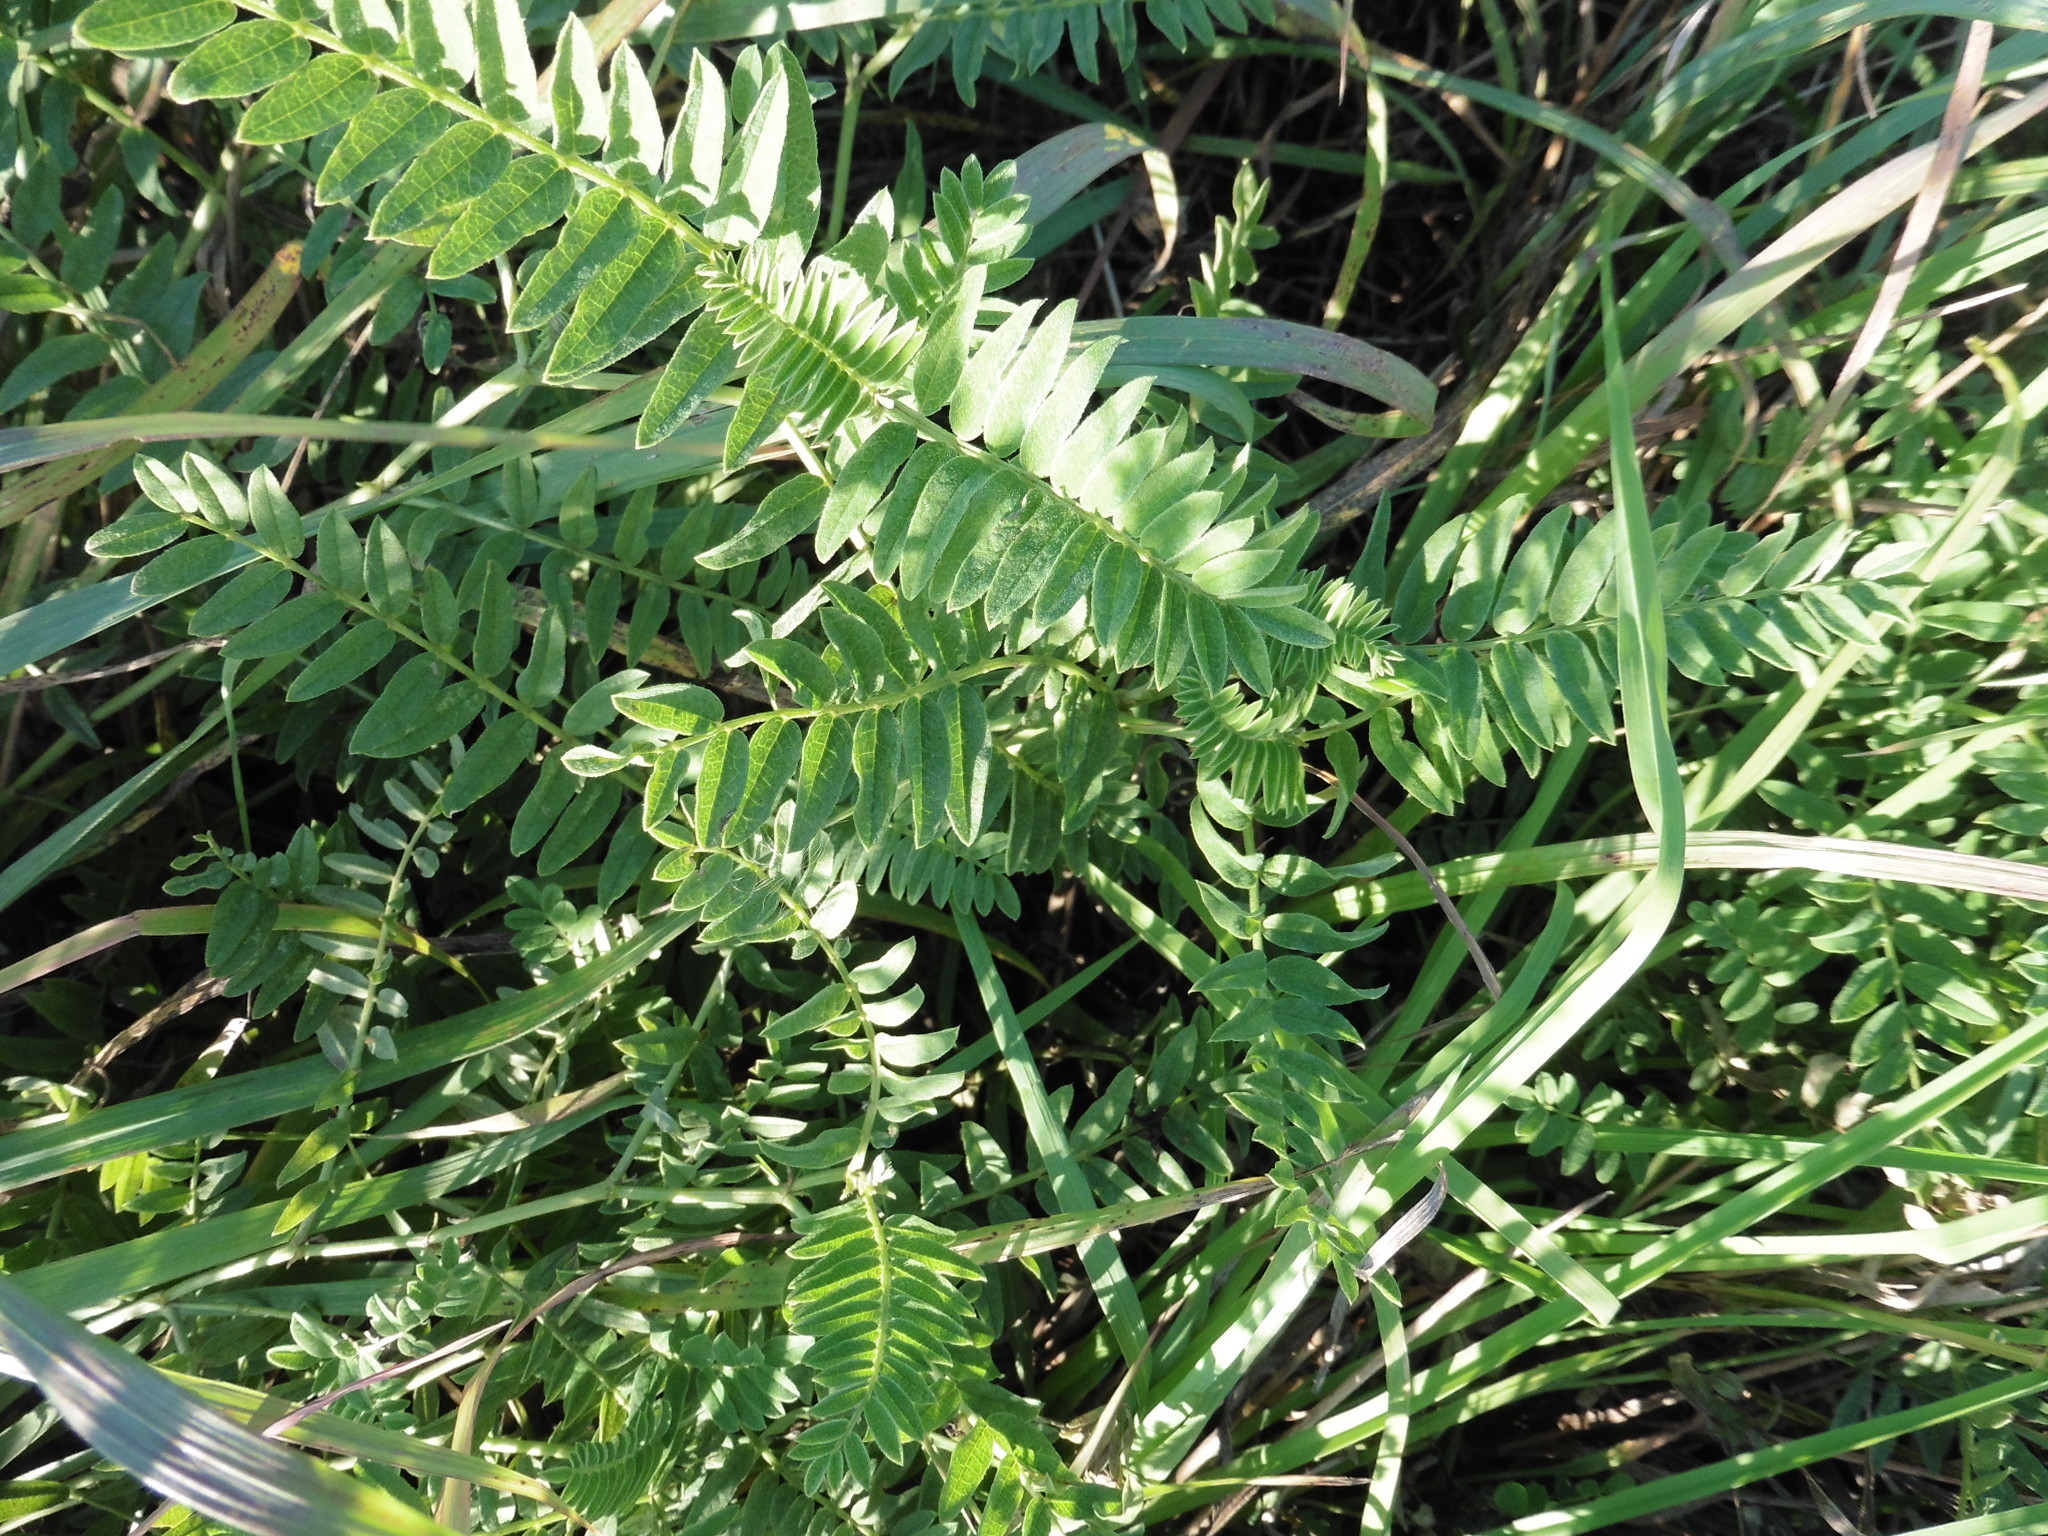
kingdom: Plantae
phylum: Tracheophyta
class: Magnoliopsida
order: Fabales
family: Fabaceae
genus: Astragalus
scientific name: Astragalus cicer
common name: Chick-pea milk-vetch
